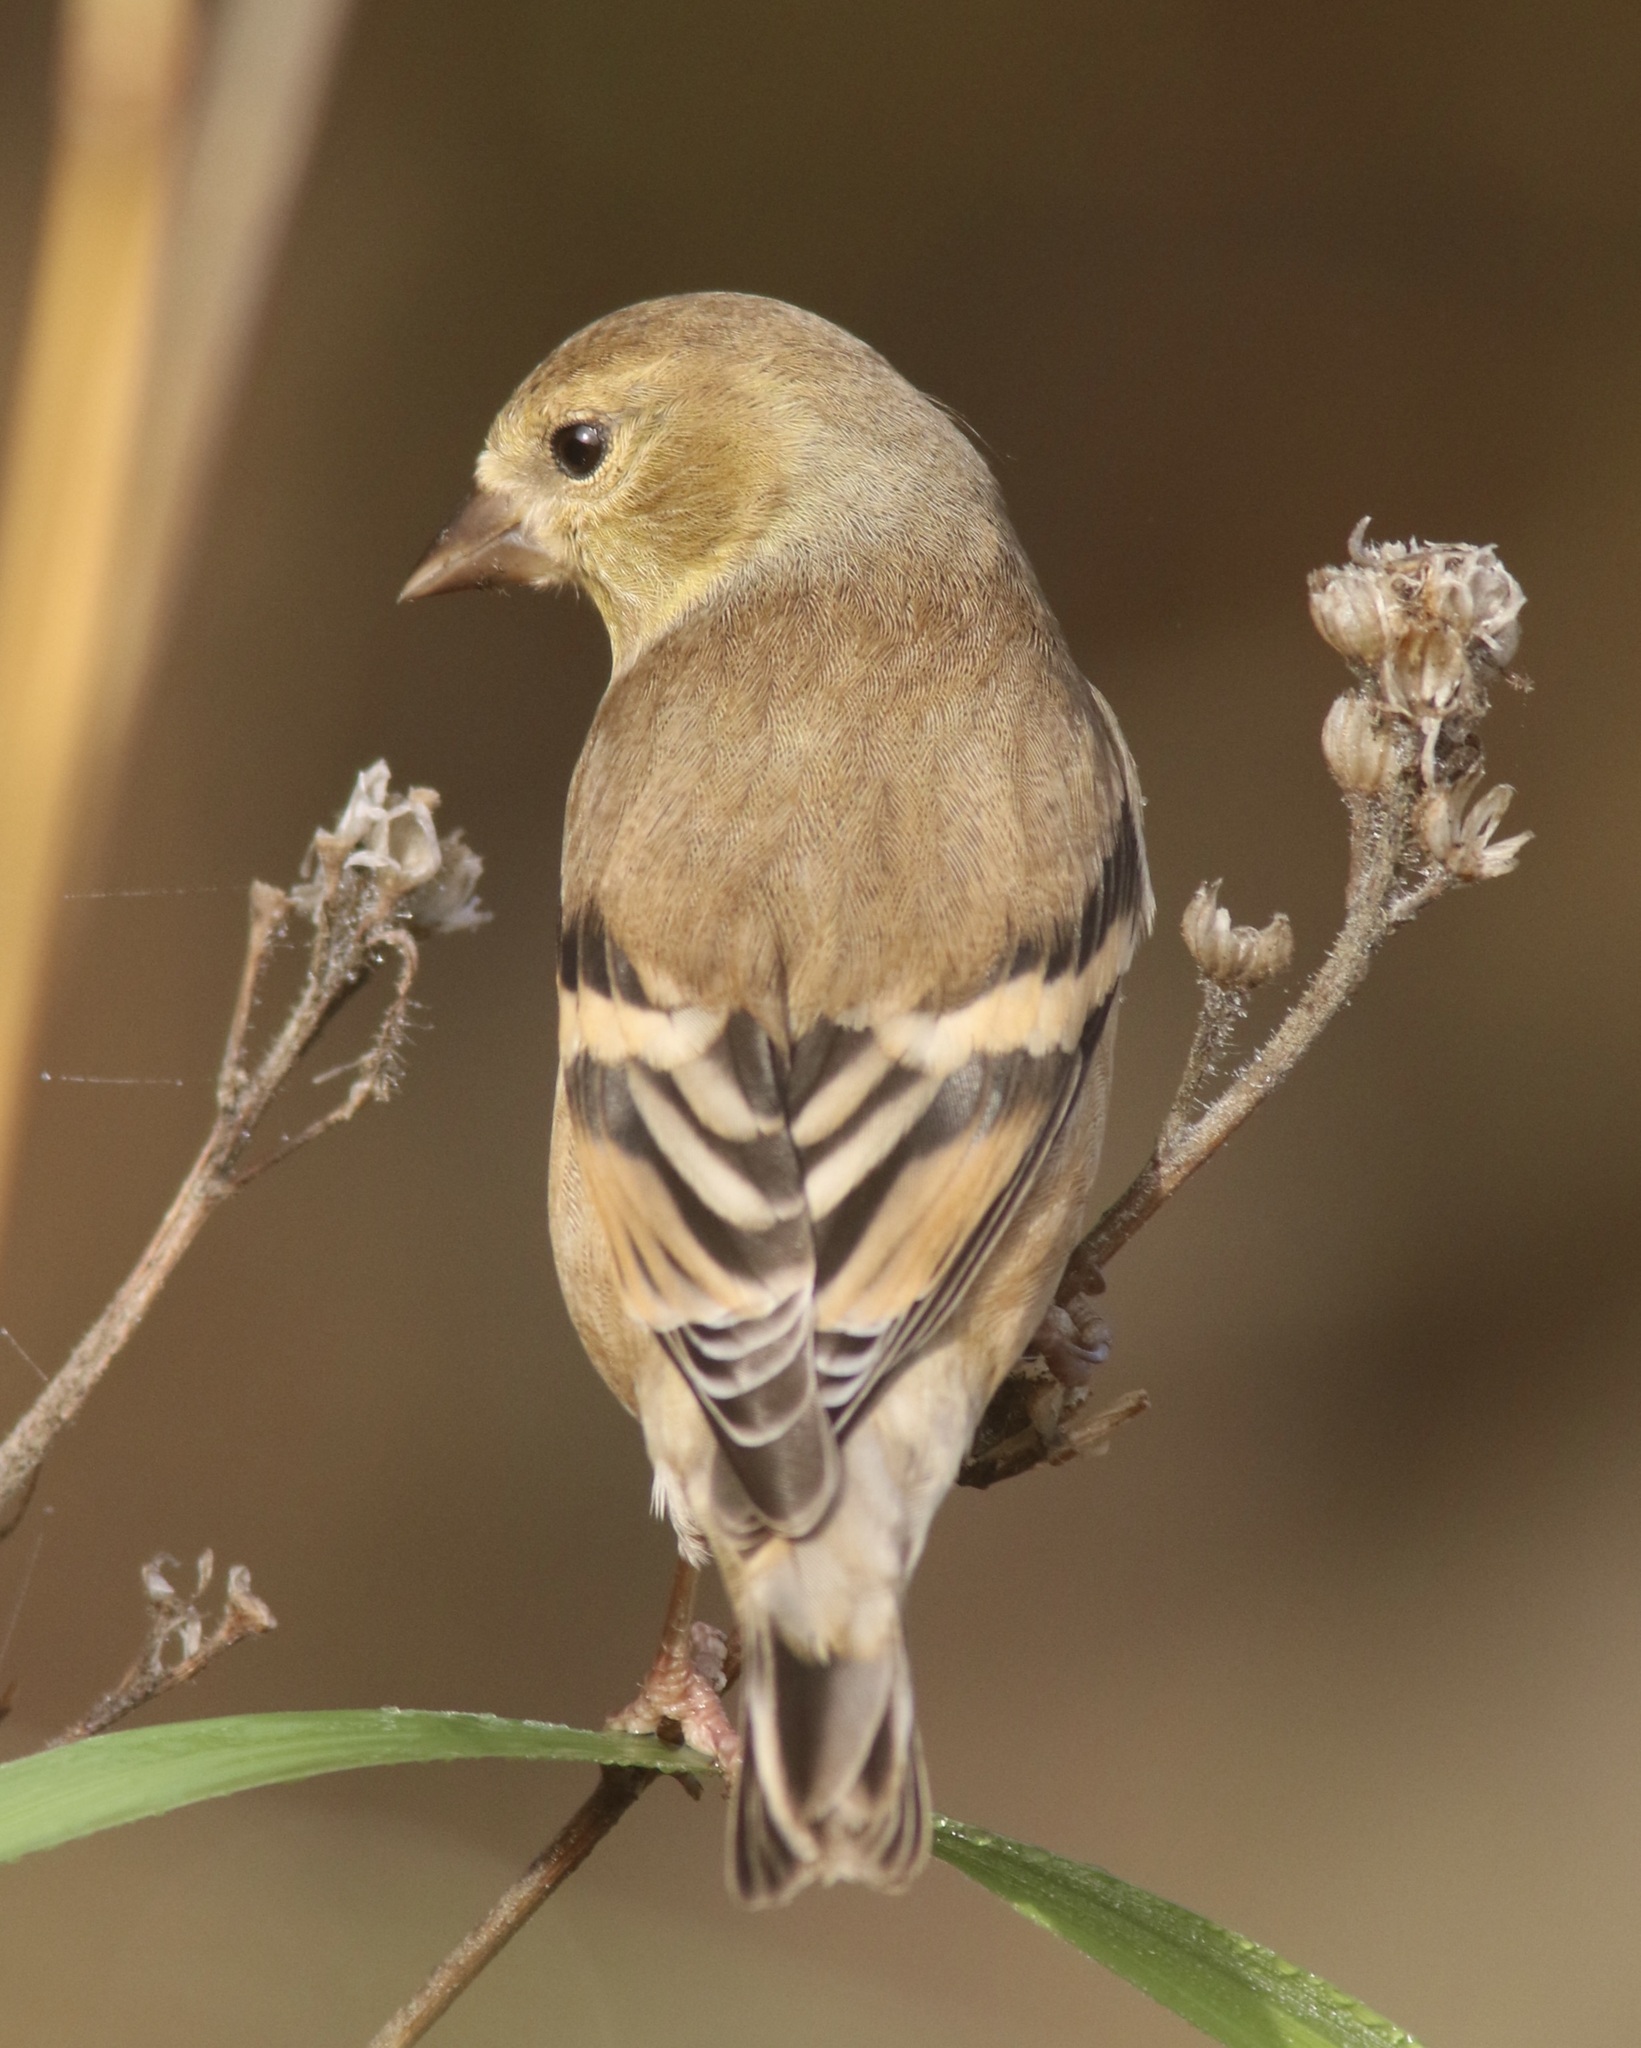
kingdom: Animalia
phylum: Chordata
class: Aves
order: Passeriformes
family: Fringillidae
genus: Spinus
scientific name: Spinus tristis
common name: American goldfinch
